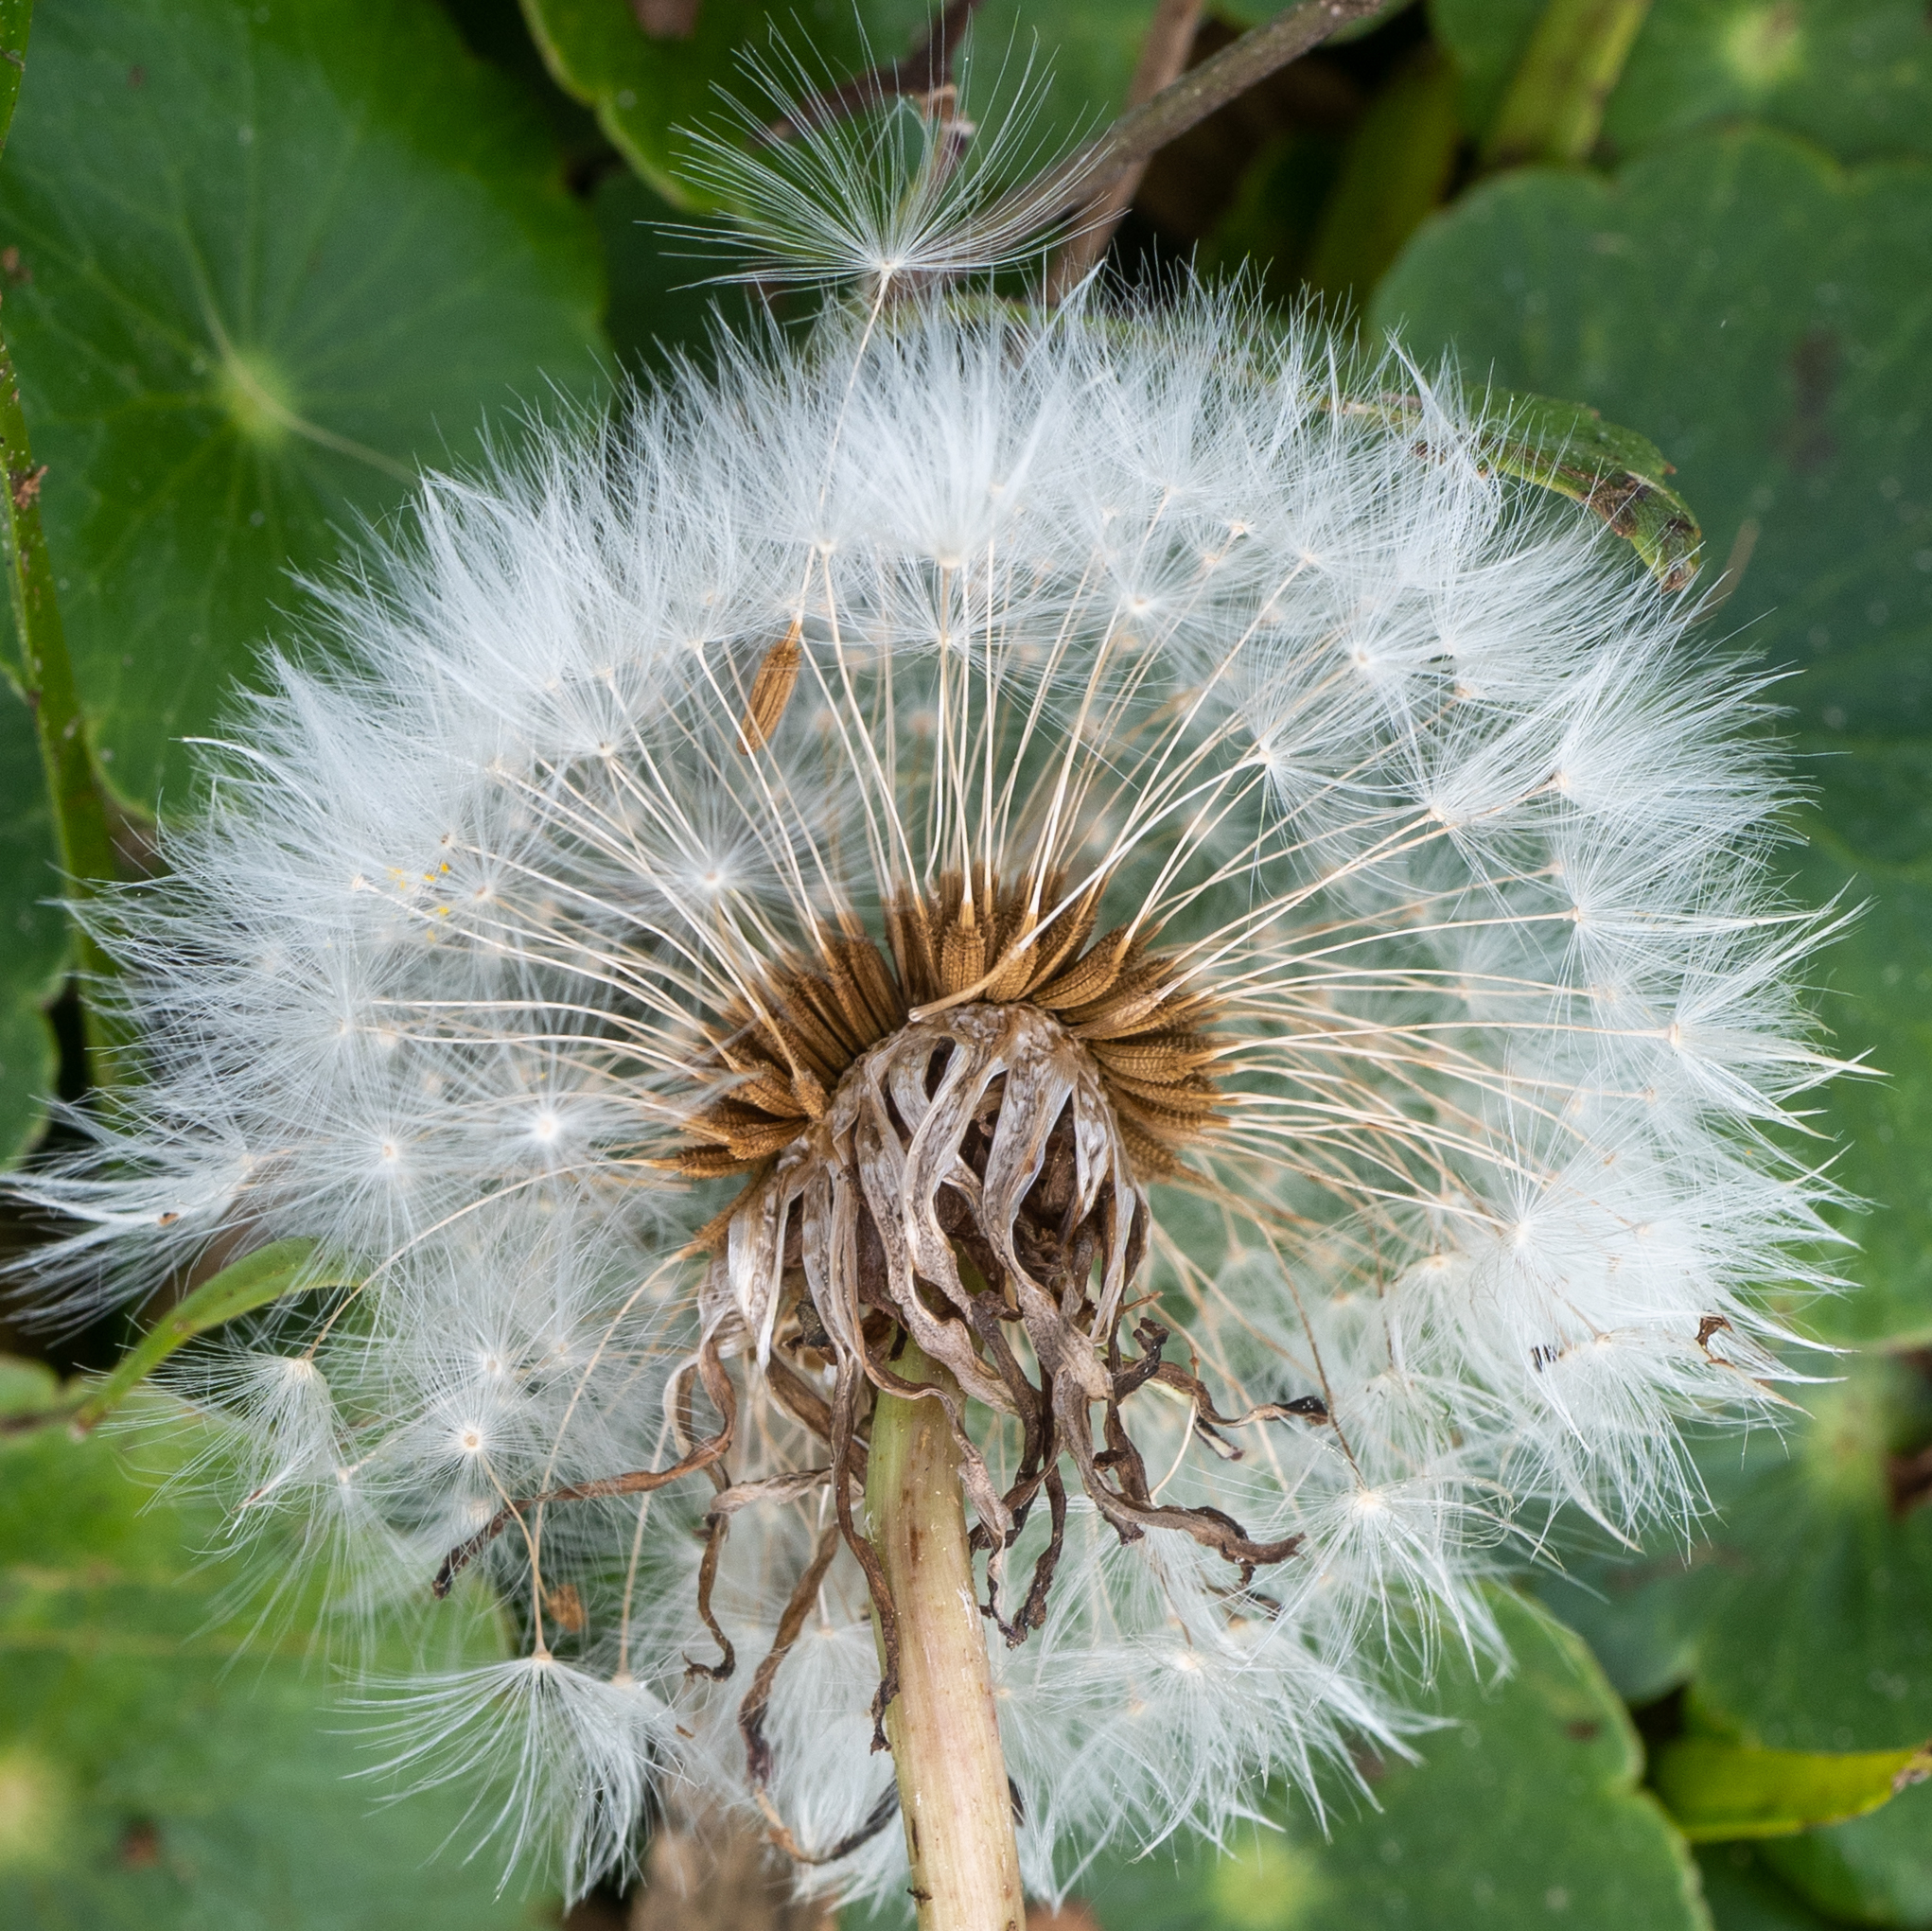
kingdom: Plantae
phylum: Tracheophyta
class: Magnoliopsida
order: Asterales
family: Asteraceae
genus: Taraxacum
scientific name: Taraxacum officinale
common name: Common dandelion
